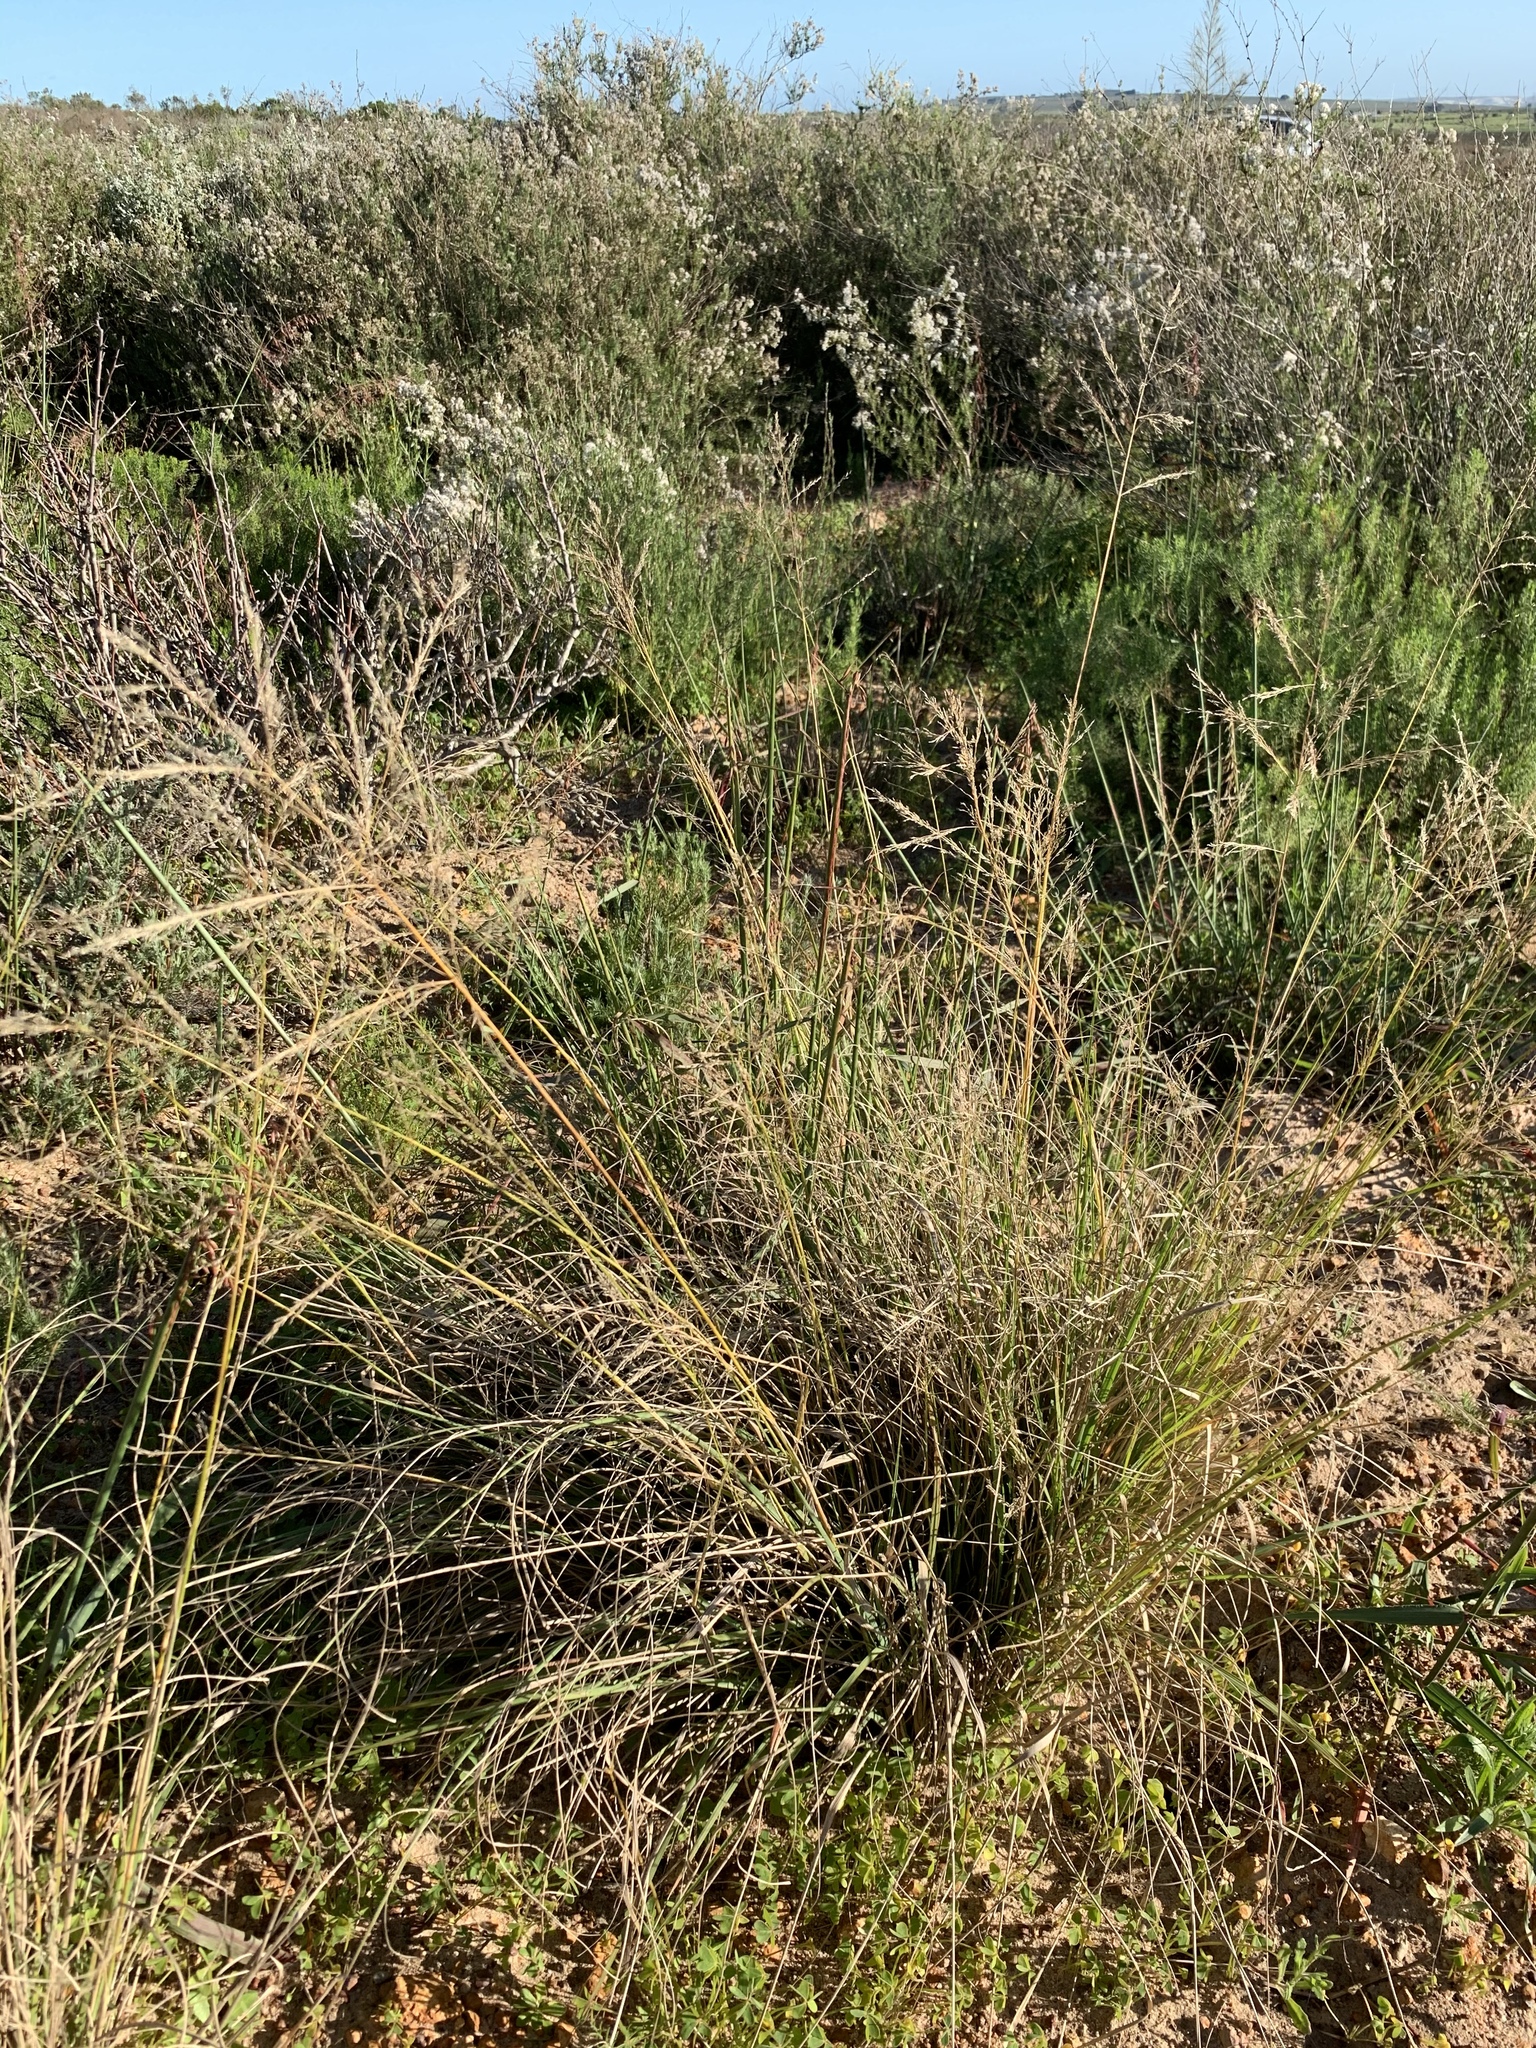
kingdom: Plantae
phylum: Tracheophyta
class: Liliopsida
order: Poales
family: Poaceae
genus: Eragrostis
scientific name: Eragrostis curvula
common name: African love-grass
